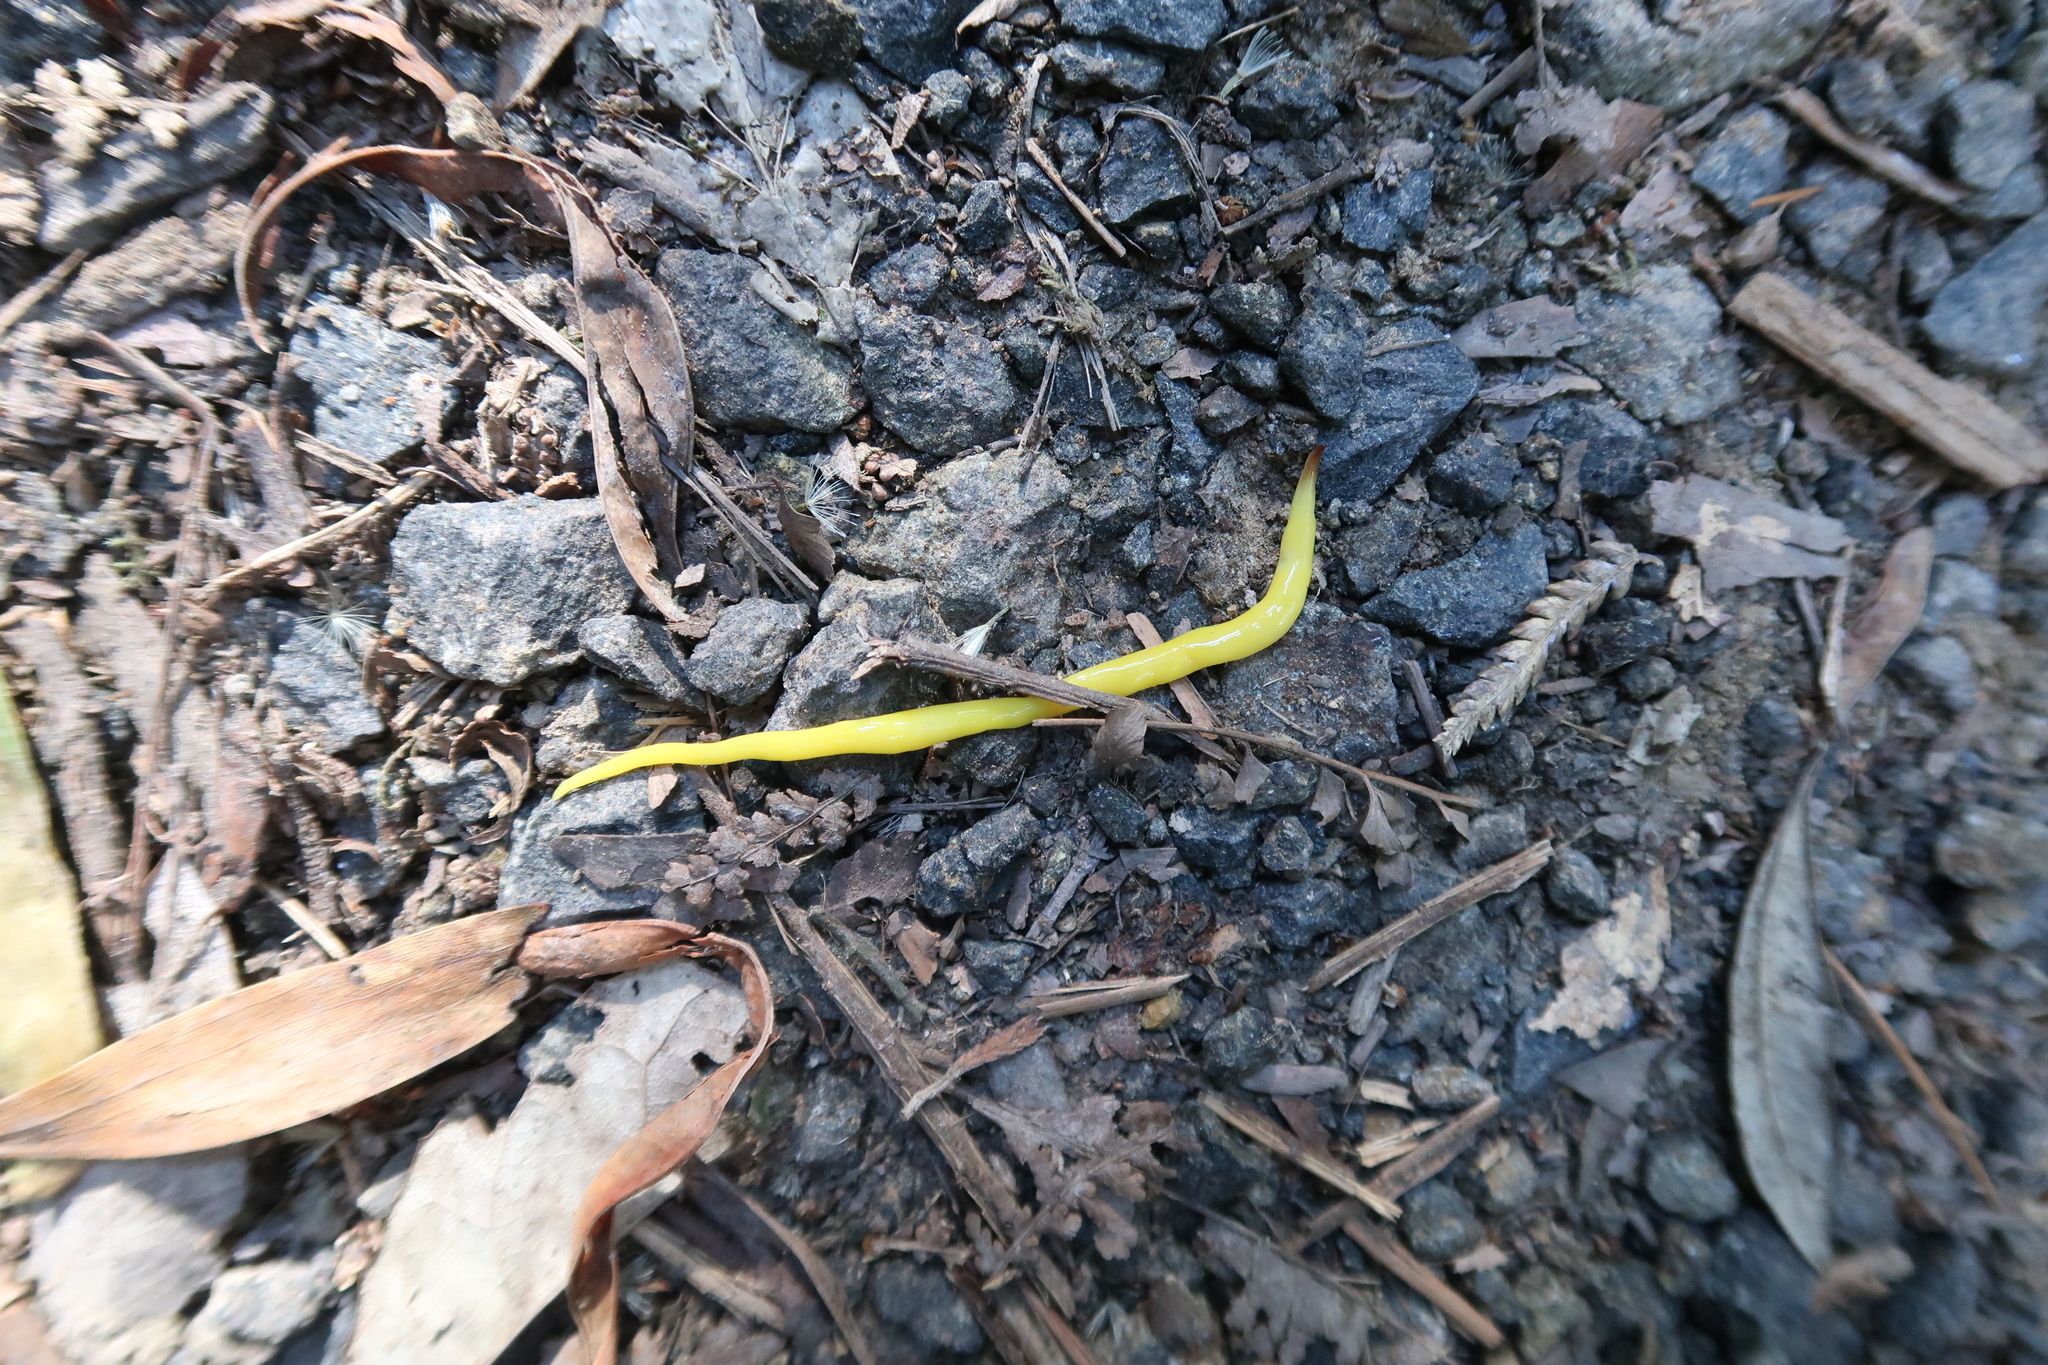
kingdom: Animalia
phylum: Platyhelminthes
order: Tricladida
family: Geoplanidae
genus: Fletchamia
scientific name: Fletchamia sugdeni
